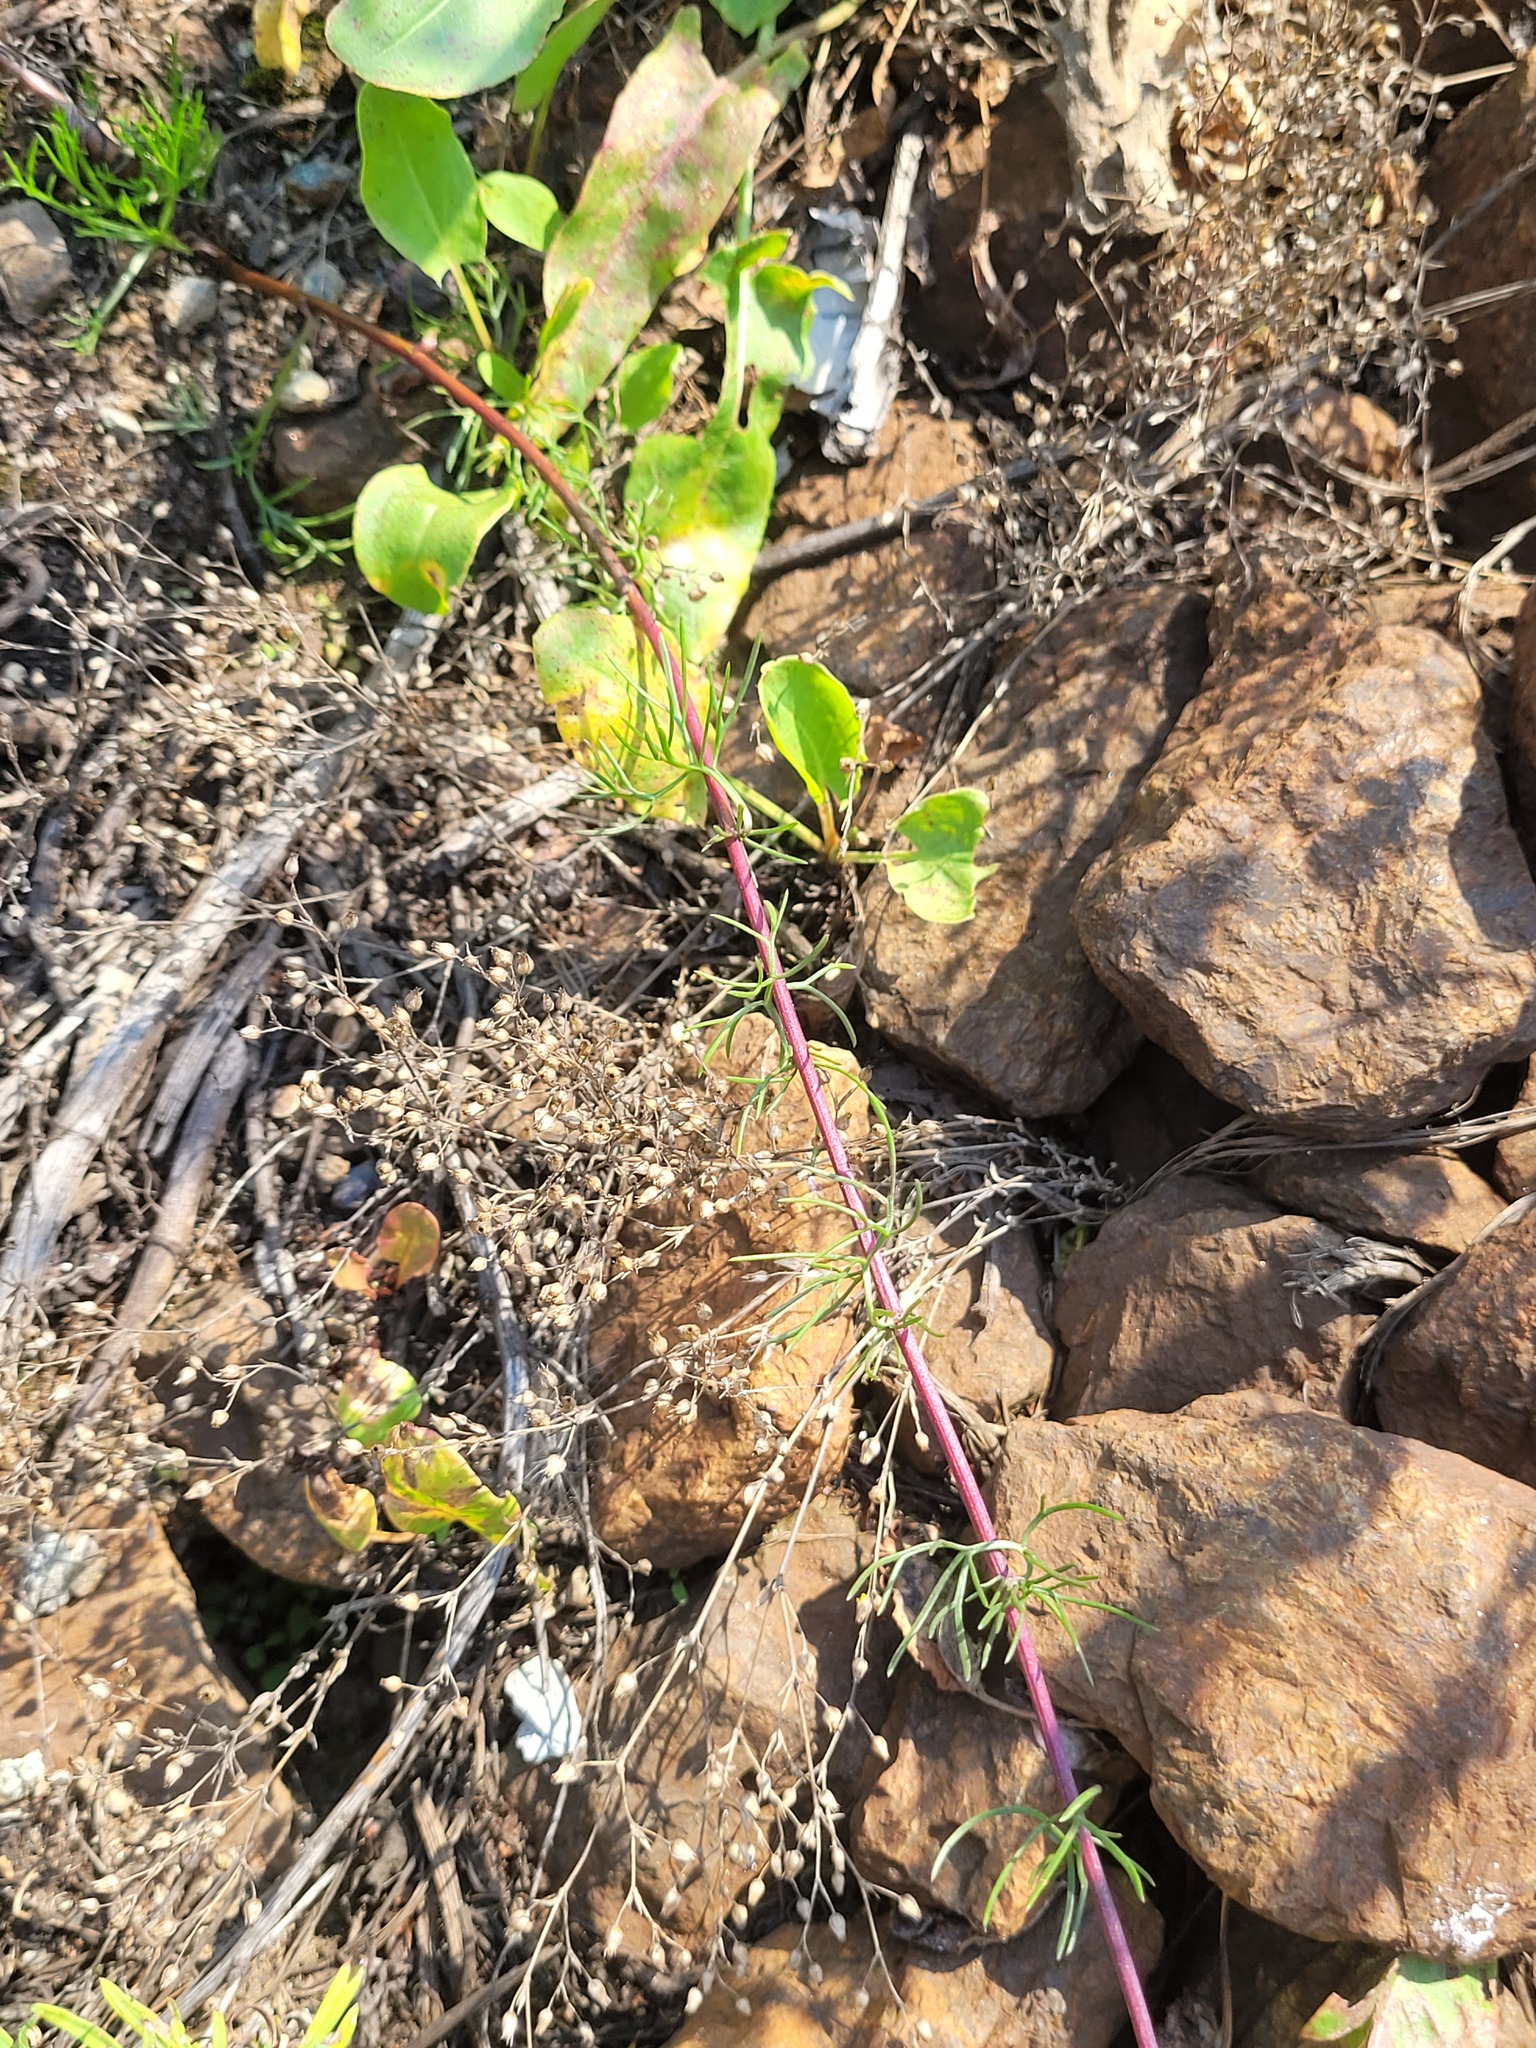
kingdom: Plantae
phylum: Tracheophyta
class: Magnoliopsida
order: Caryophyllales
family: Caryophyllaceae
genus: Arenaria
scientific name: Arenaria serpyllifolia
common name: Thyme-leaved sandwort
